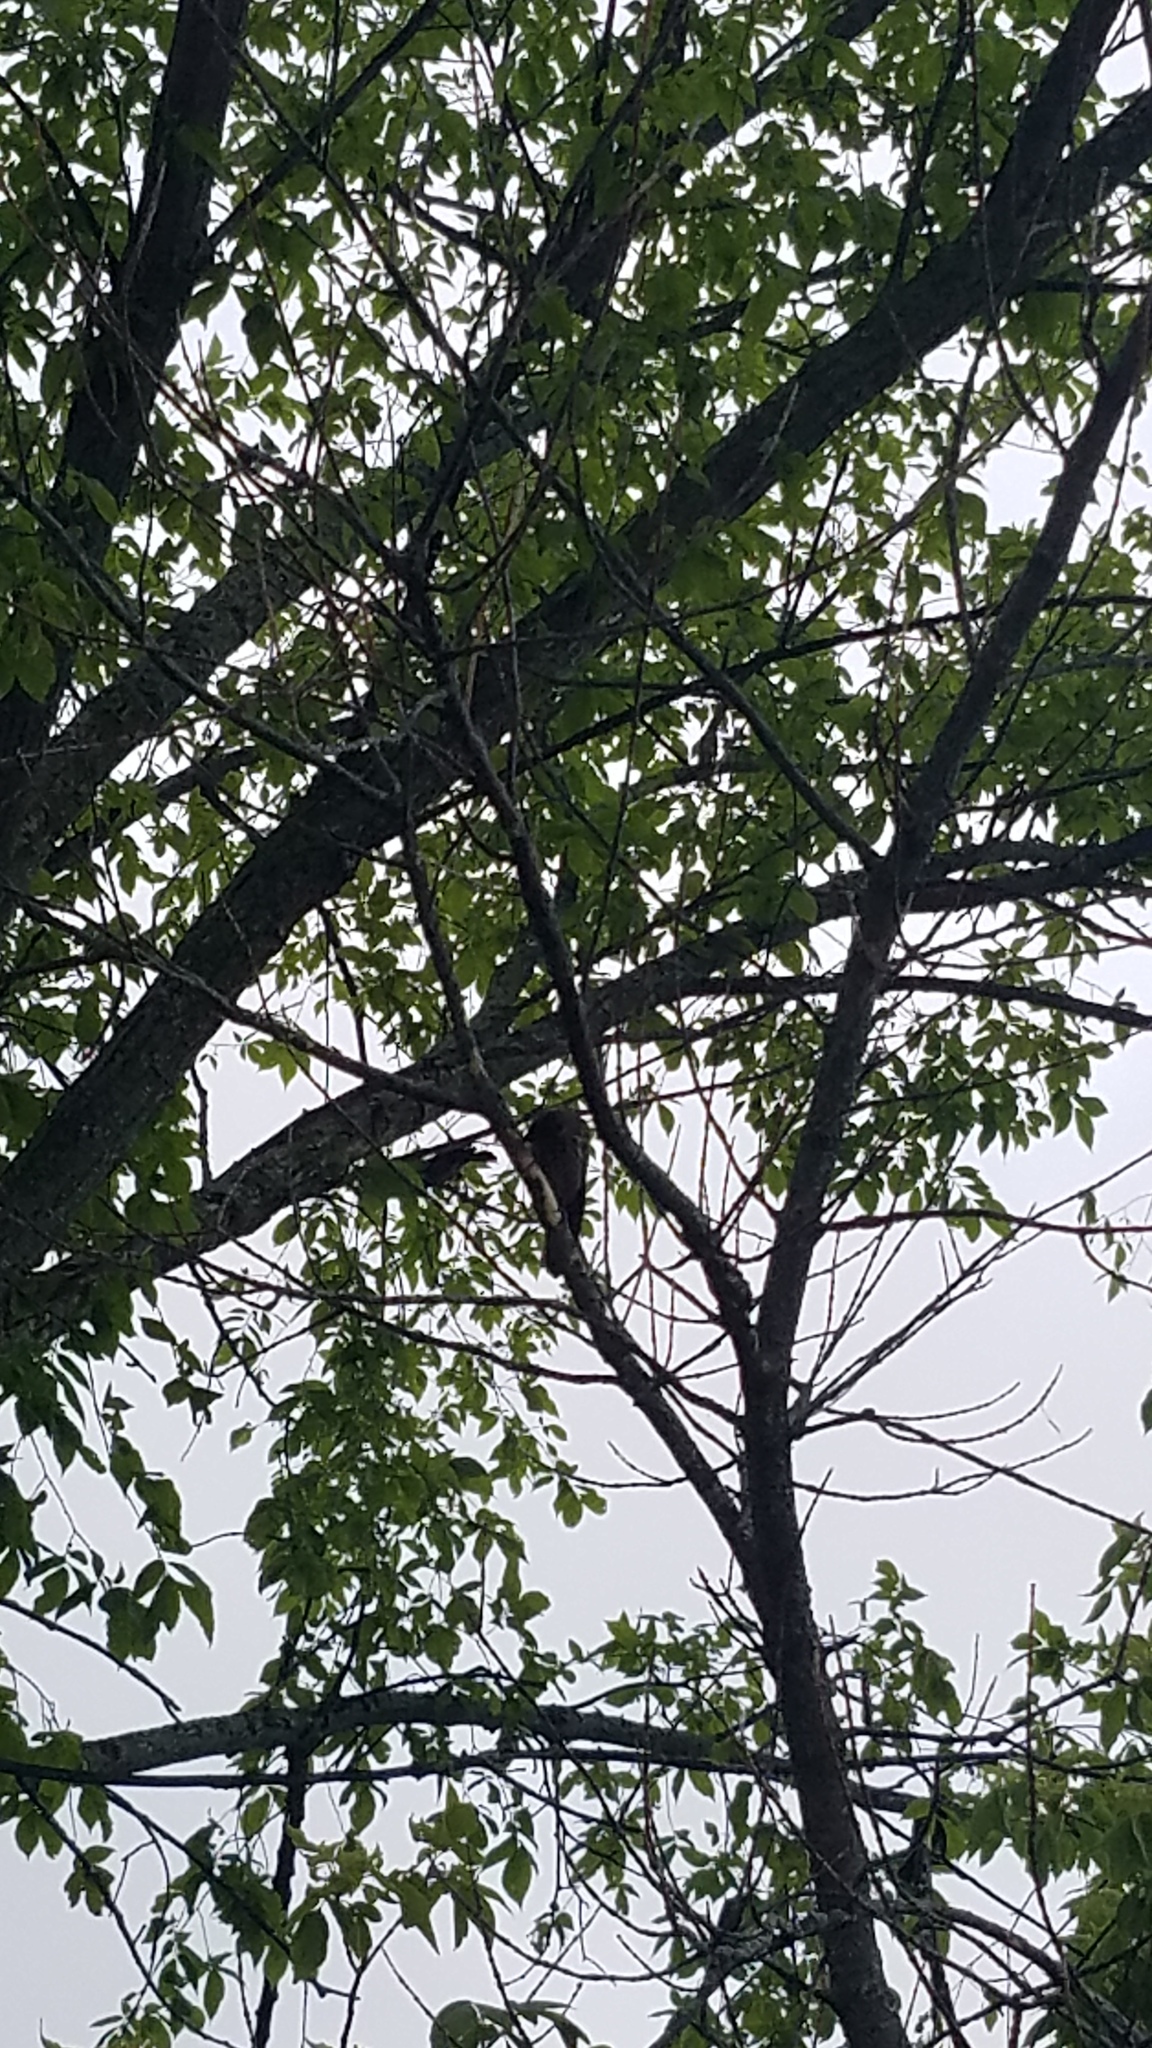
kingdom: Animalia
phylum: Chordata
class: Aves
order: Passeriformes
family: Icteridae
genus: Agelaius
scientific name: Agelaius phoeniceus
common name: Red-winged blackbird
